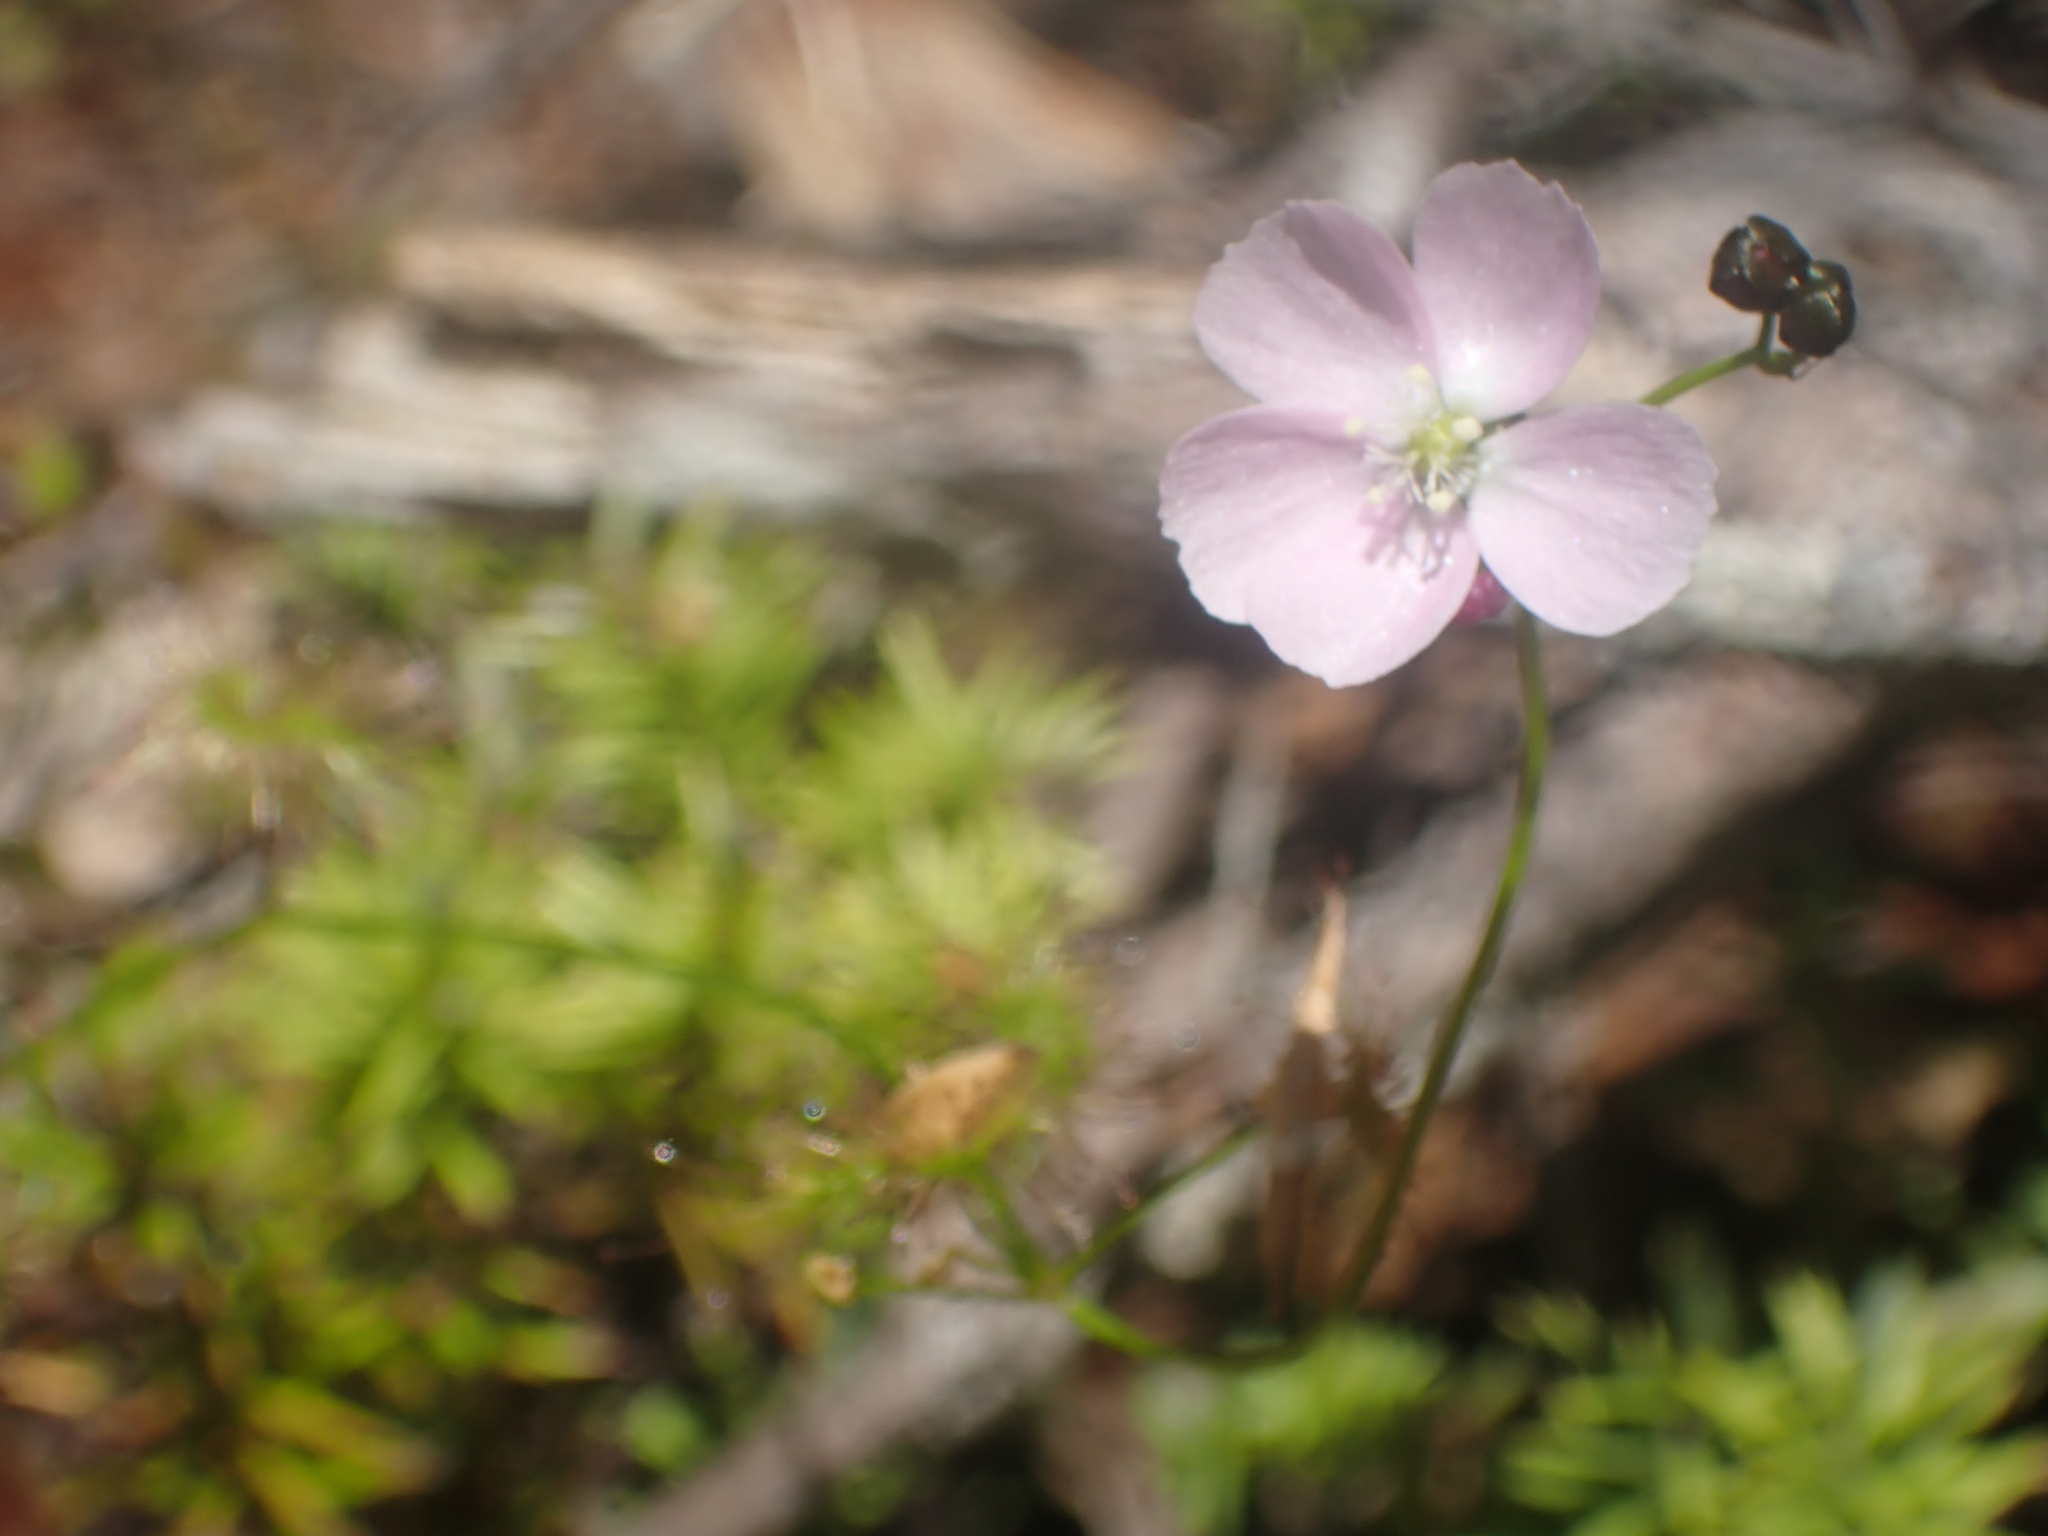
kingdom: Plantae
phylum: Tracheophyta
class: Magnoliopsida
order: Caryophyllales
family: Droseraceae
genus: Drosera
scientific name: Drosera peltata
